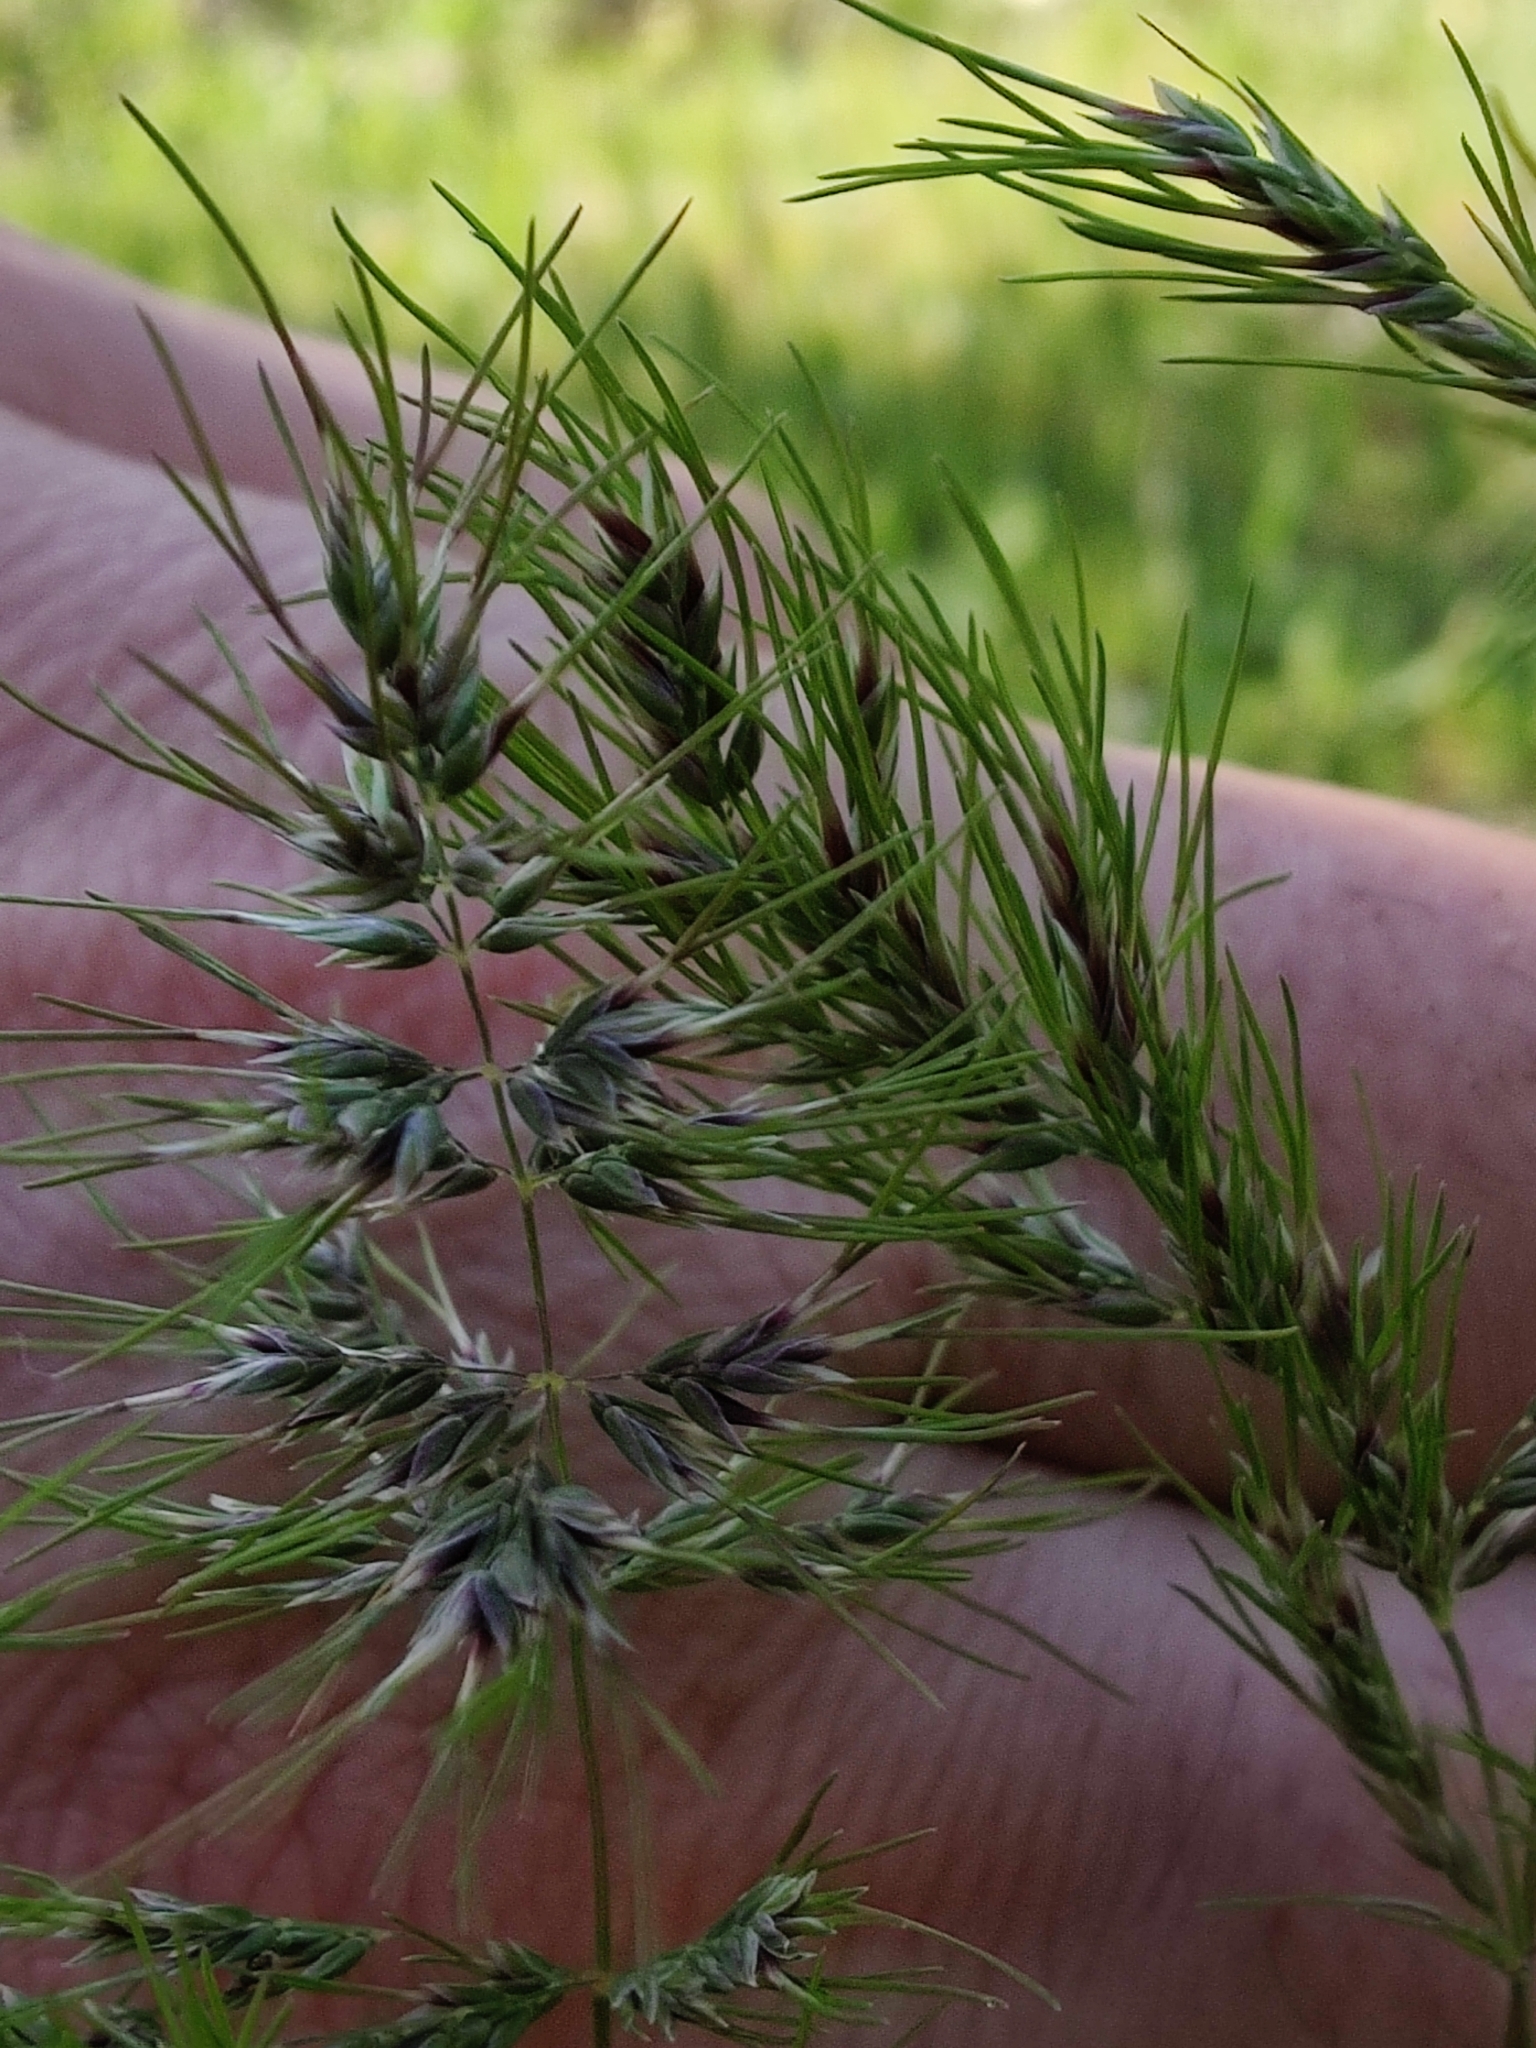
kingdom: Plantae
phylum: Tracheophyta
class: Liliopsida
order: Poales
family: Poaceae
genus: Poa
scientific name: Poa bulbosa
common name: Bulbous bluegrass
